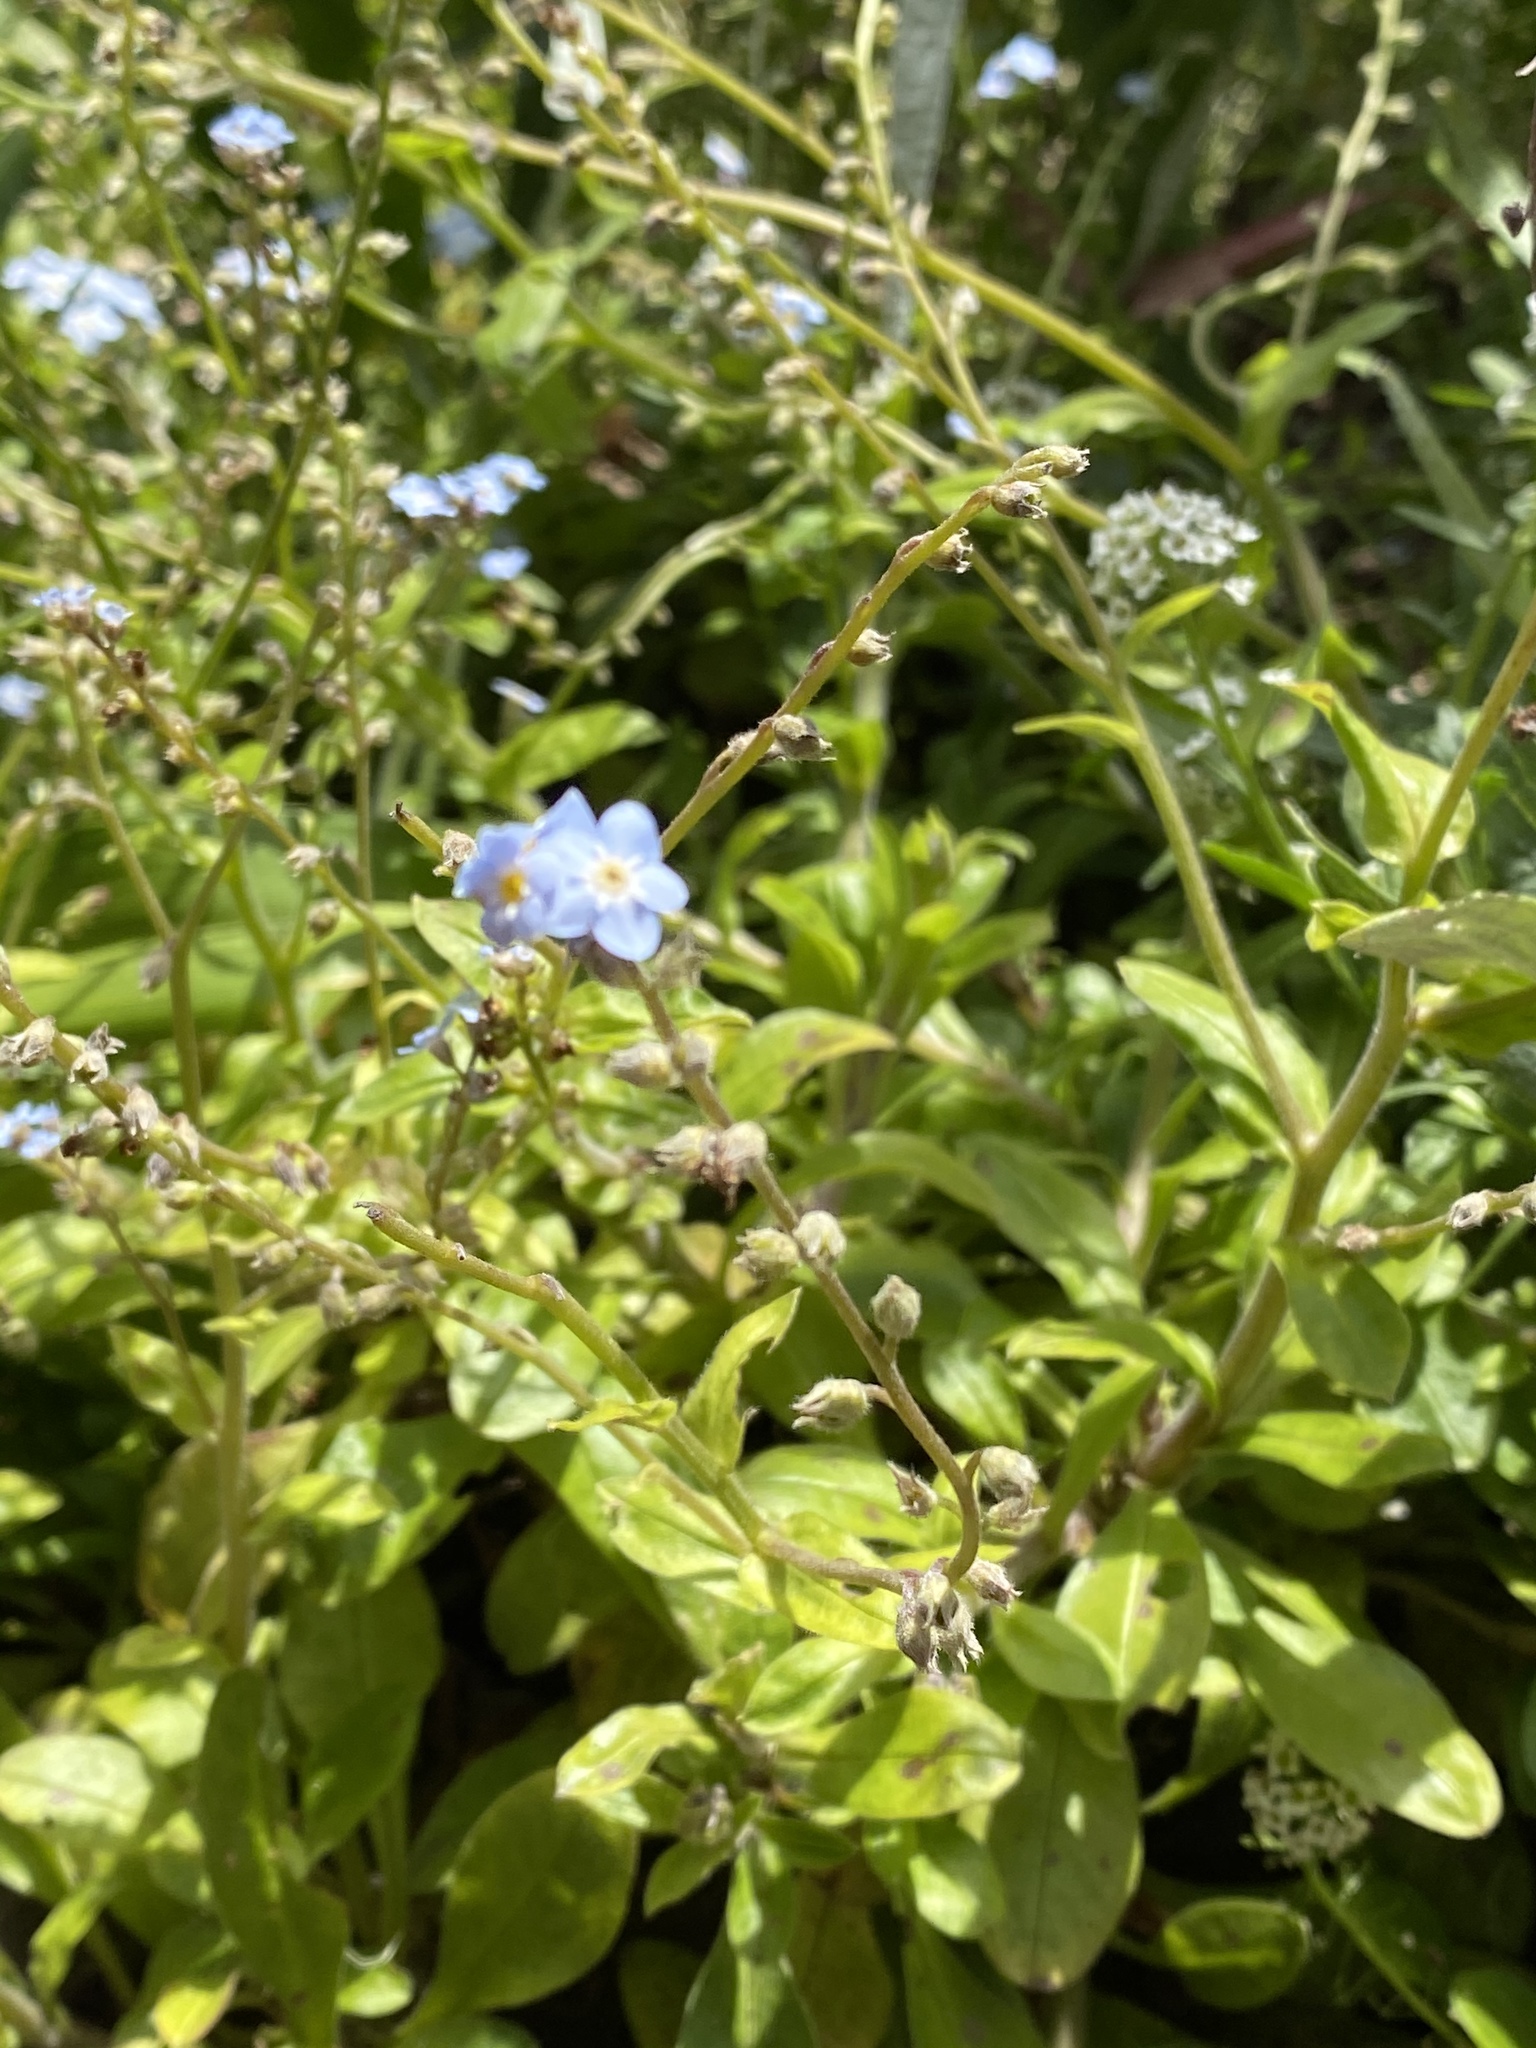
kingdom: Plantae
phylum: Tracheophyta
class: Magnoliopsida
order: Boraginales
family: Boraginaceae
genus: Myosotis
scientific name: Myosotis latifolia
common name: Broadleaf forget-me-not
